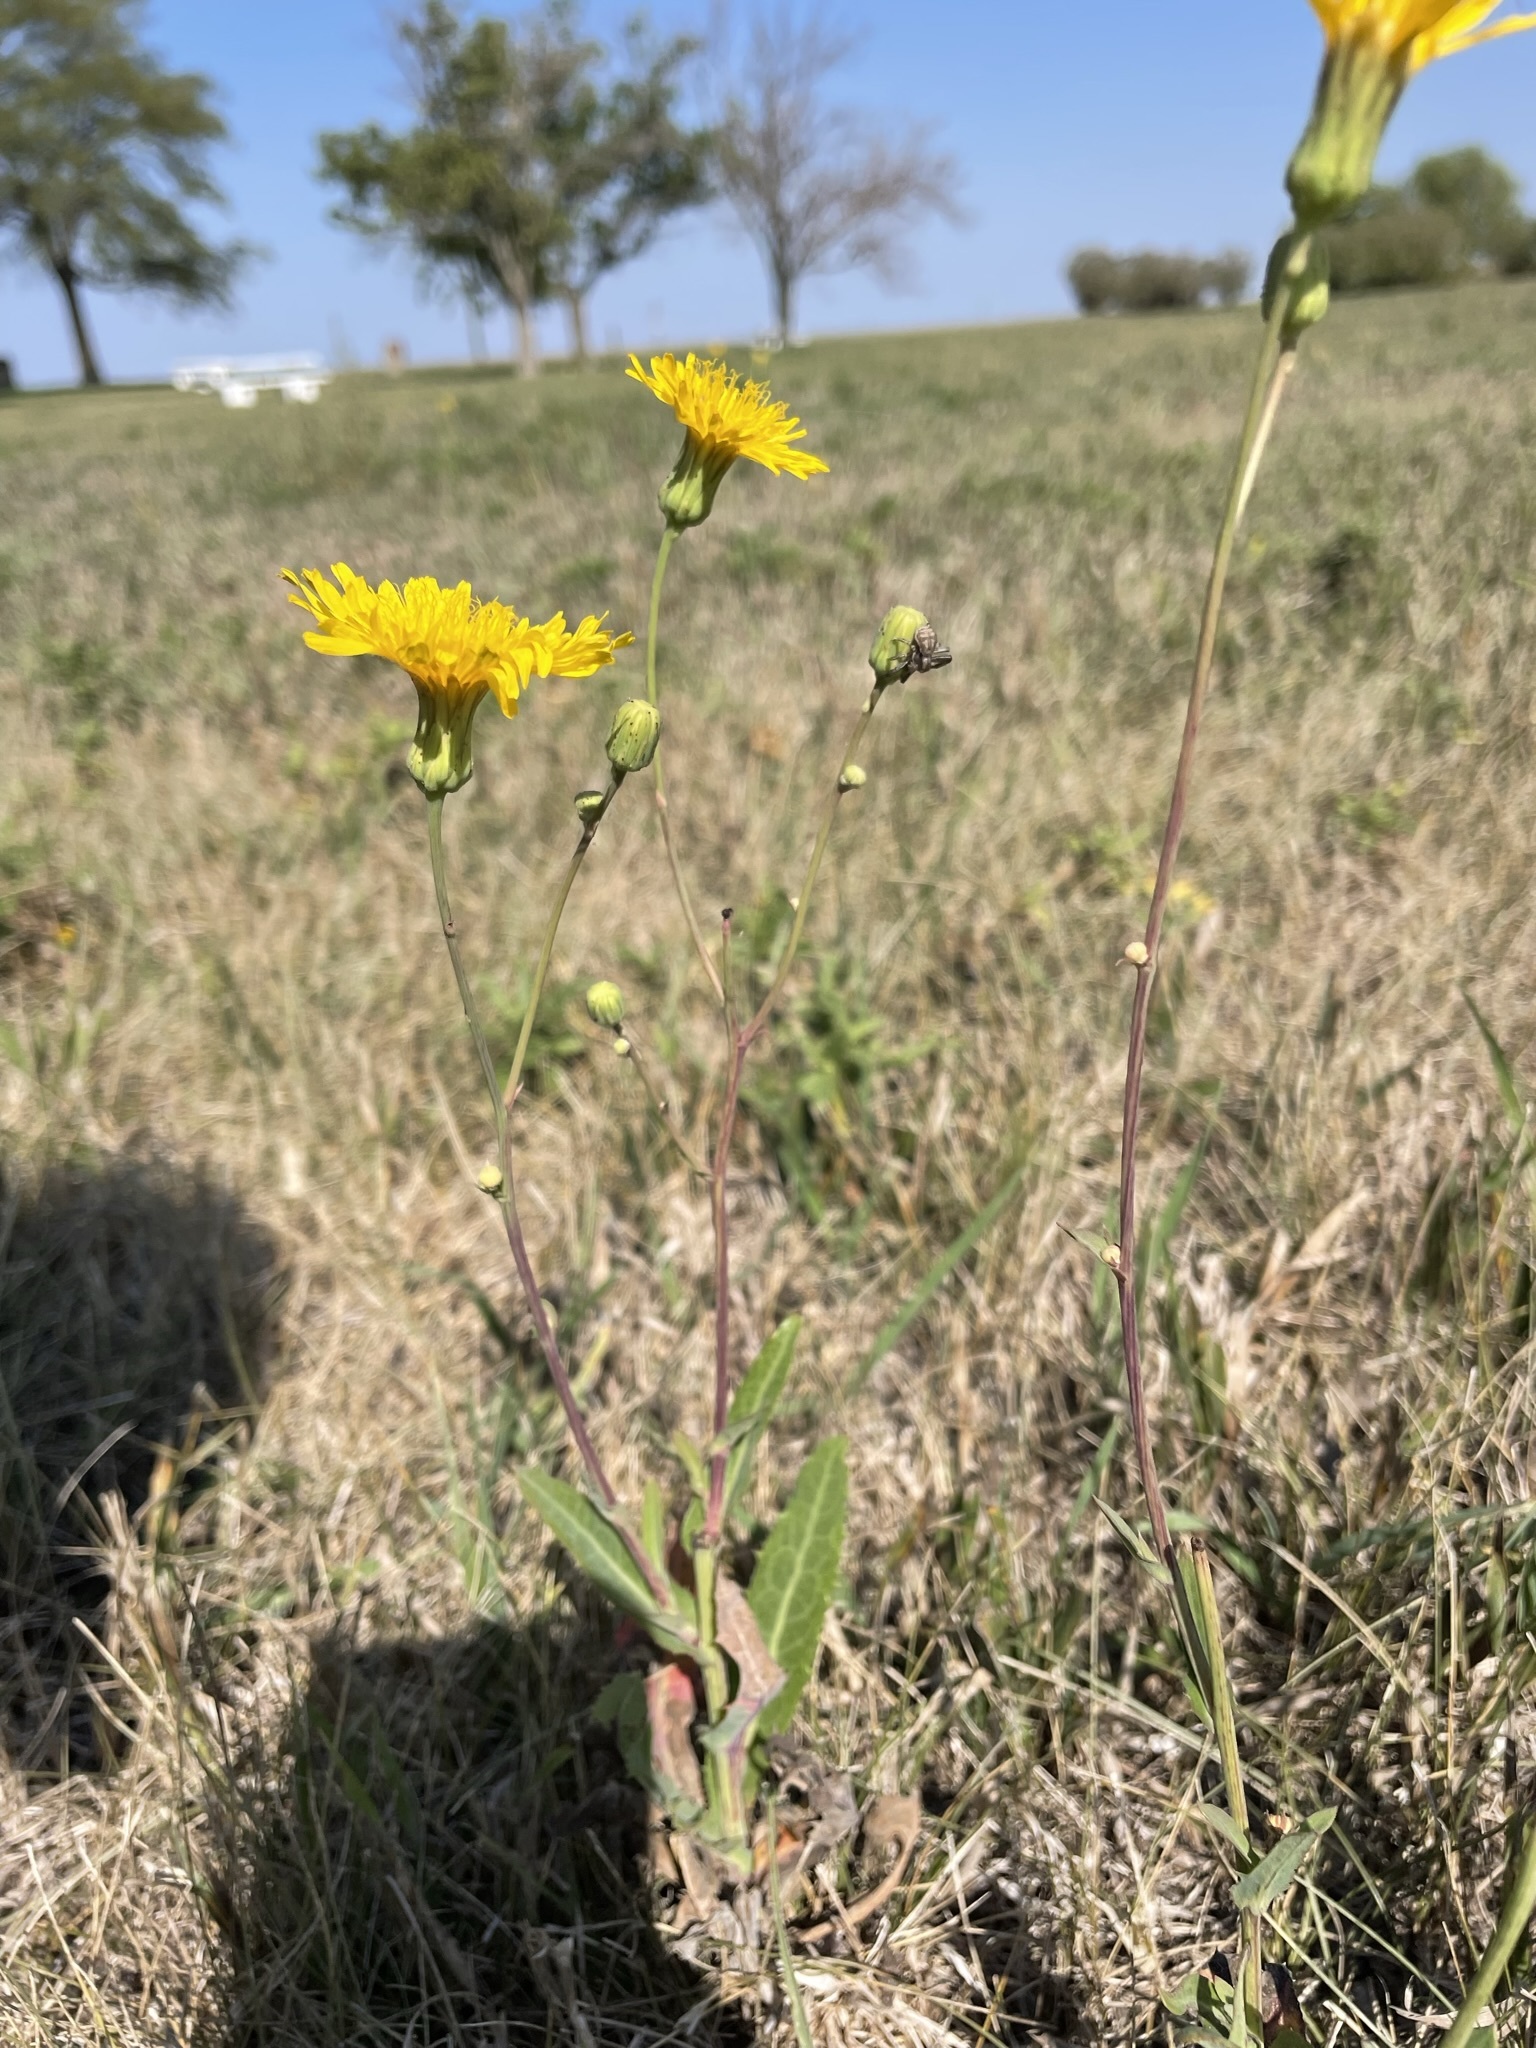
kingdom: Plantae
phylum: Tracheophyta
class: Magnoliopsida
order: Asterales
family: Asteraceae
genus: Sonchus
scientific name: Sonchus arvensis
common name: Perennial sow-thistle
